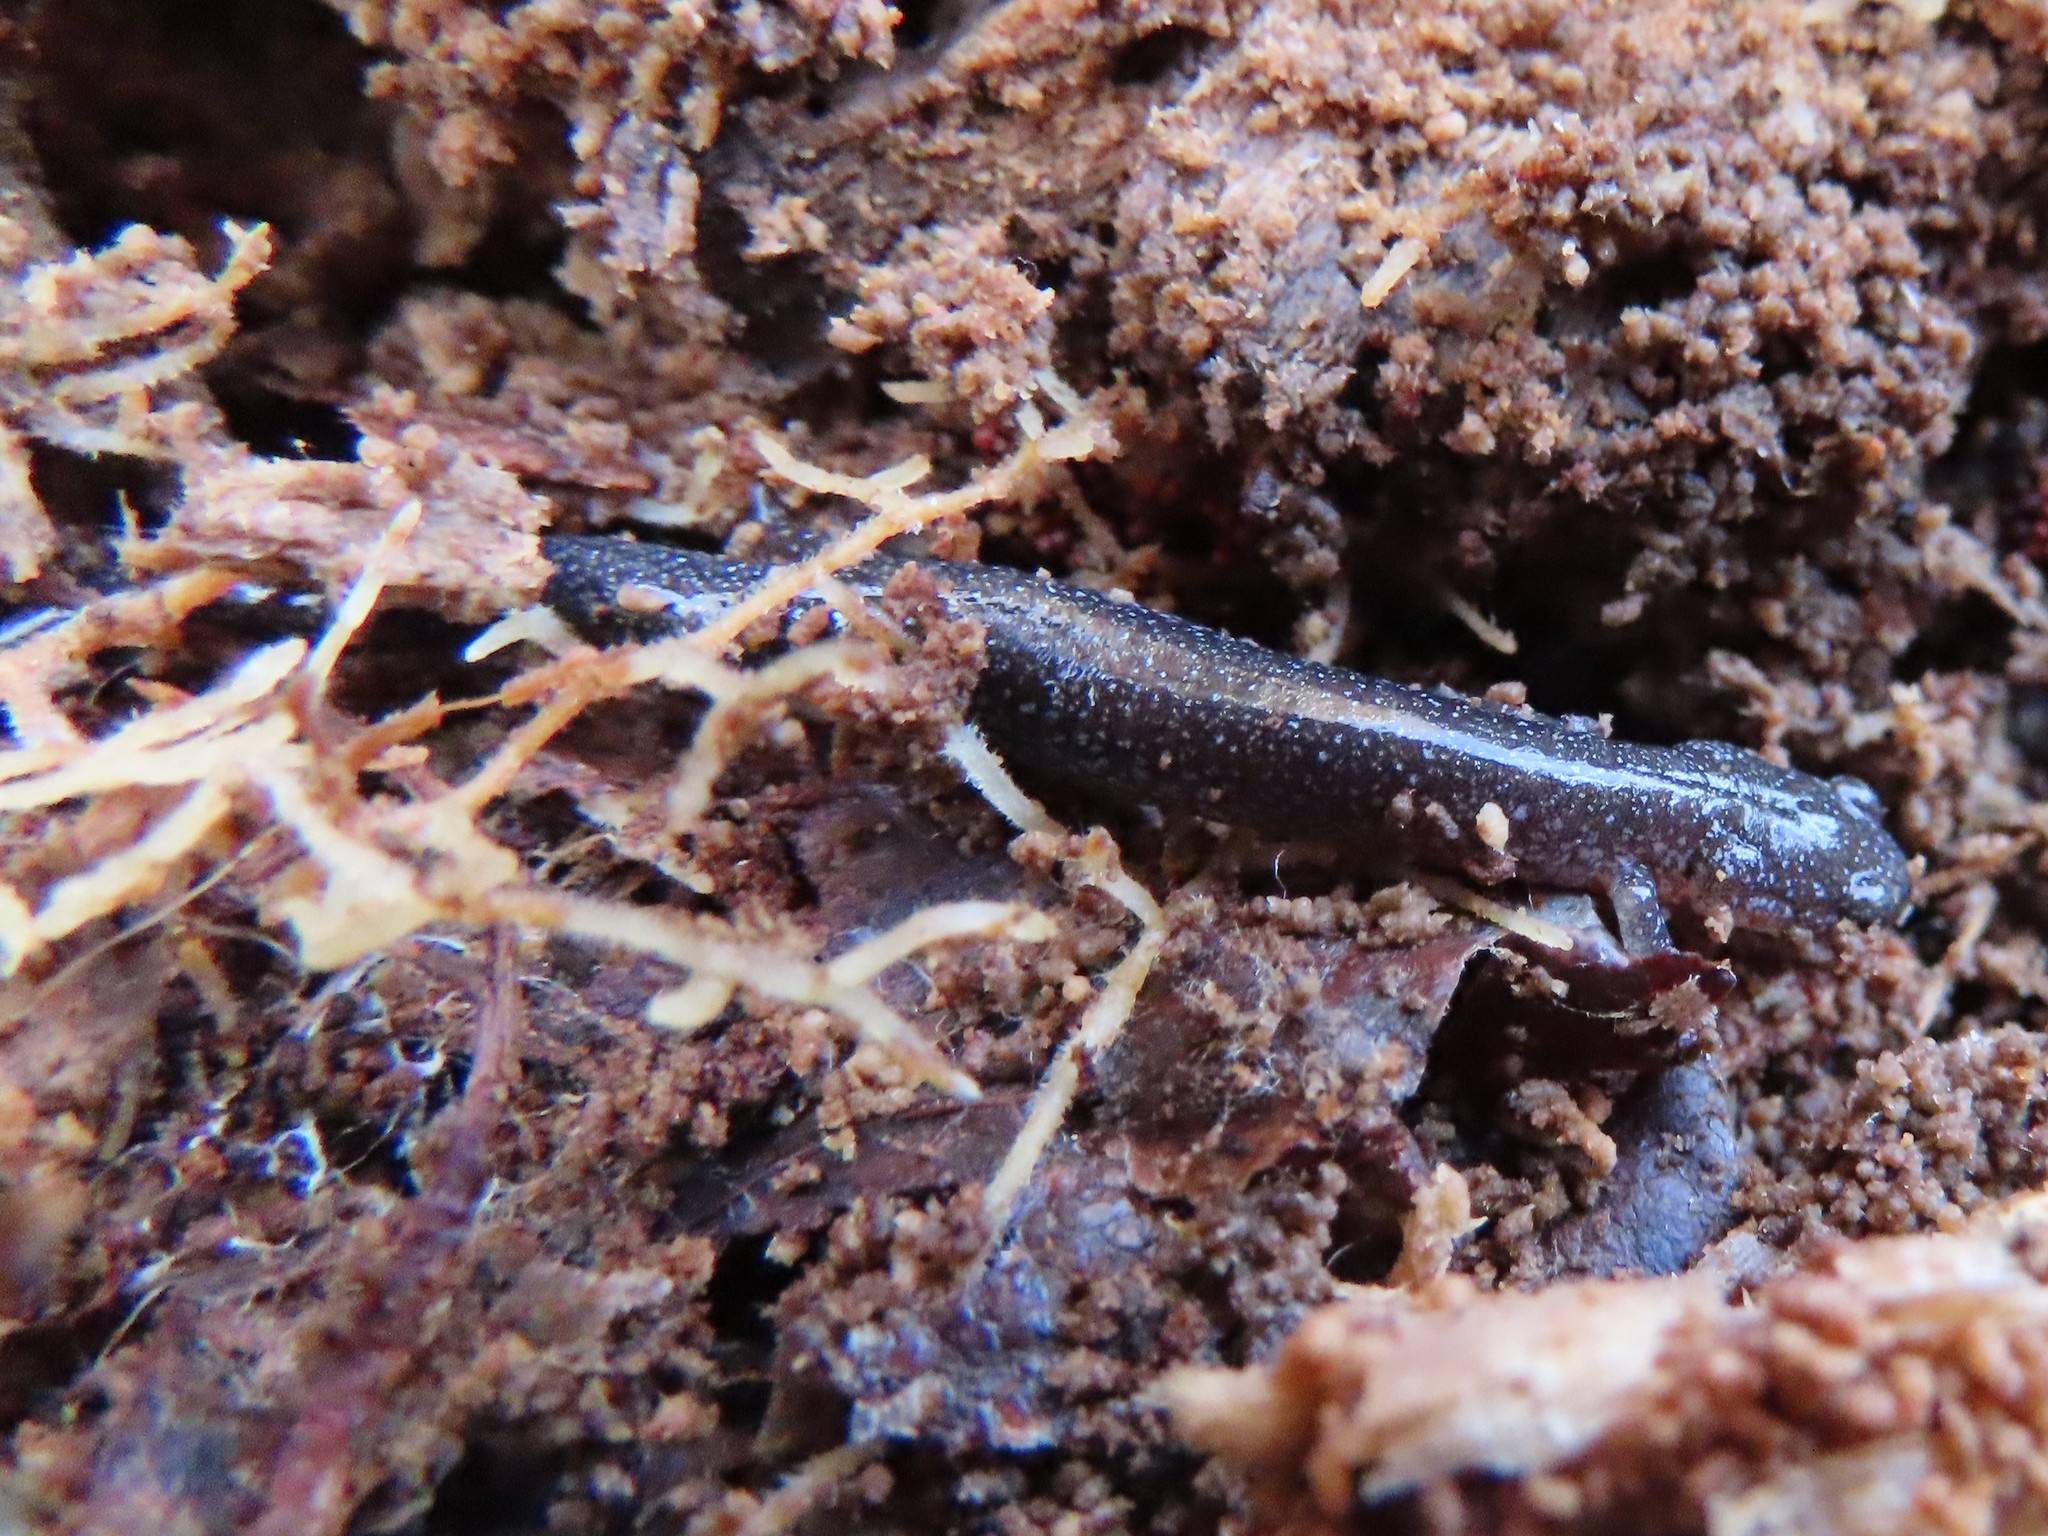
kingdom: Animalia
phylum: Chordata
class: Amphibia
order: Caudata
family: Plethodontidae
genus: Plethodon
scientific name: Plethodon cinereus
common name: Redback salamander
